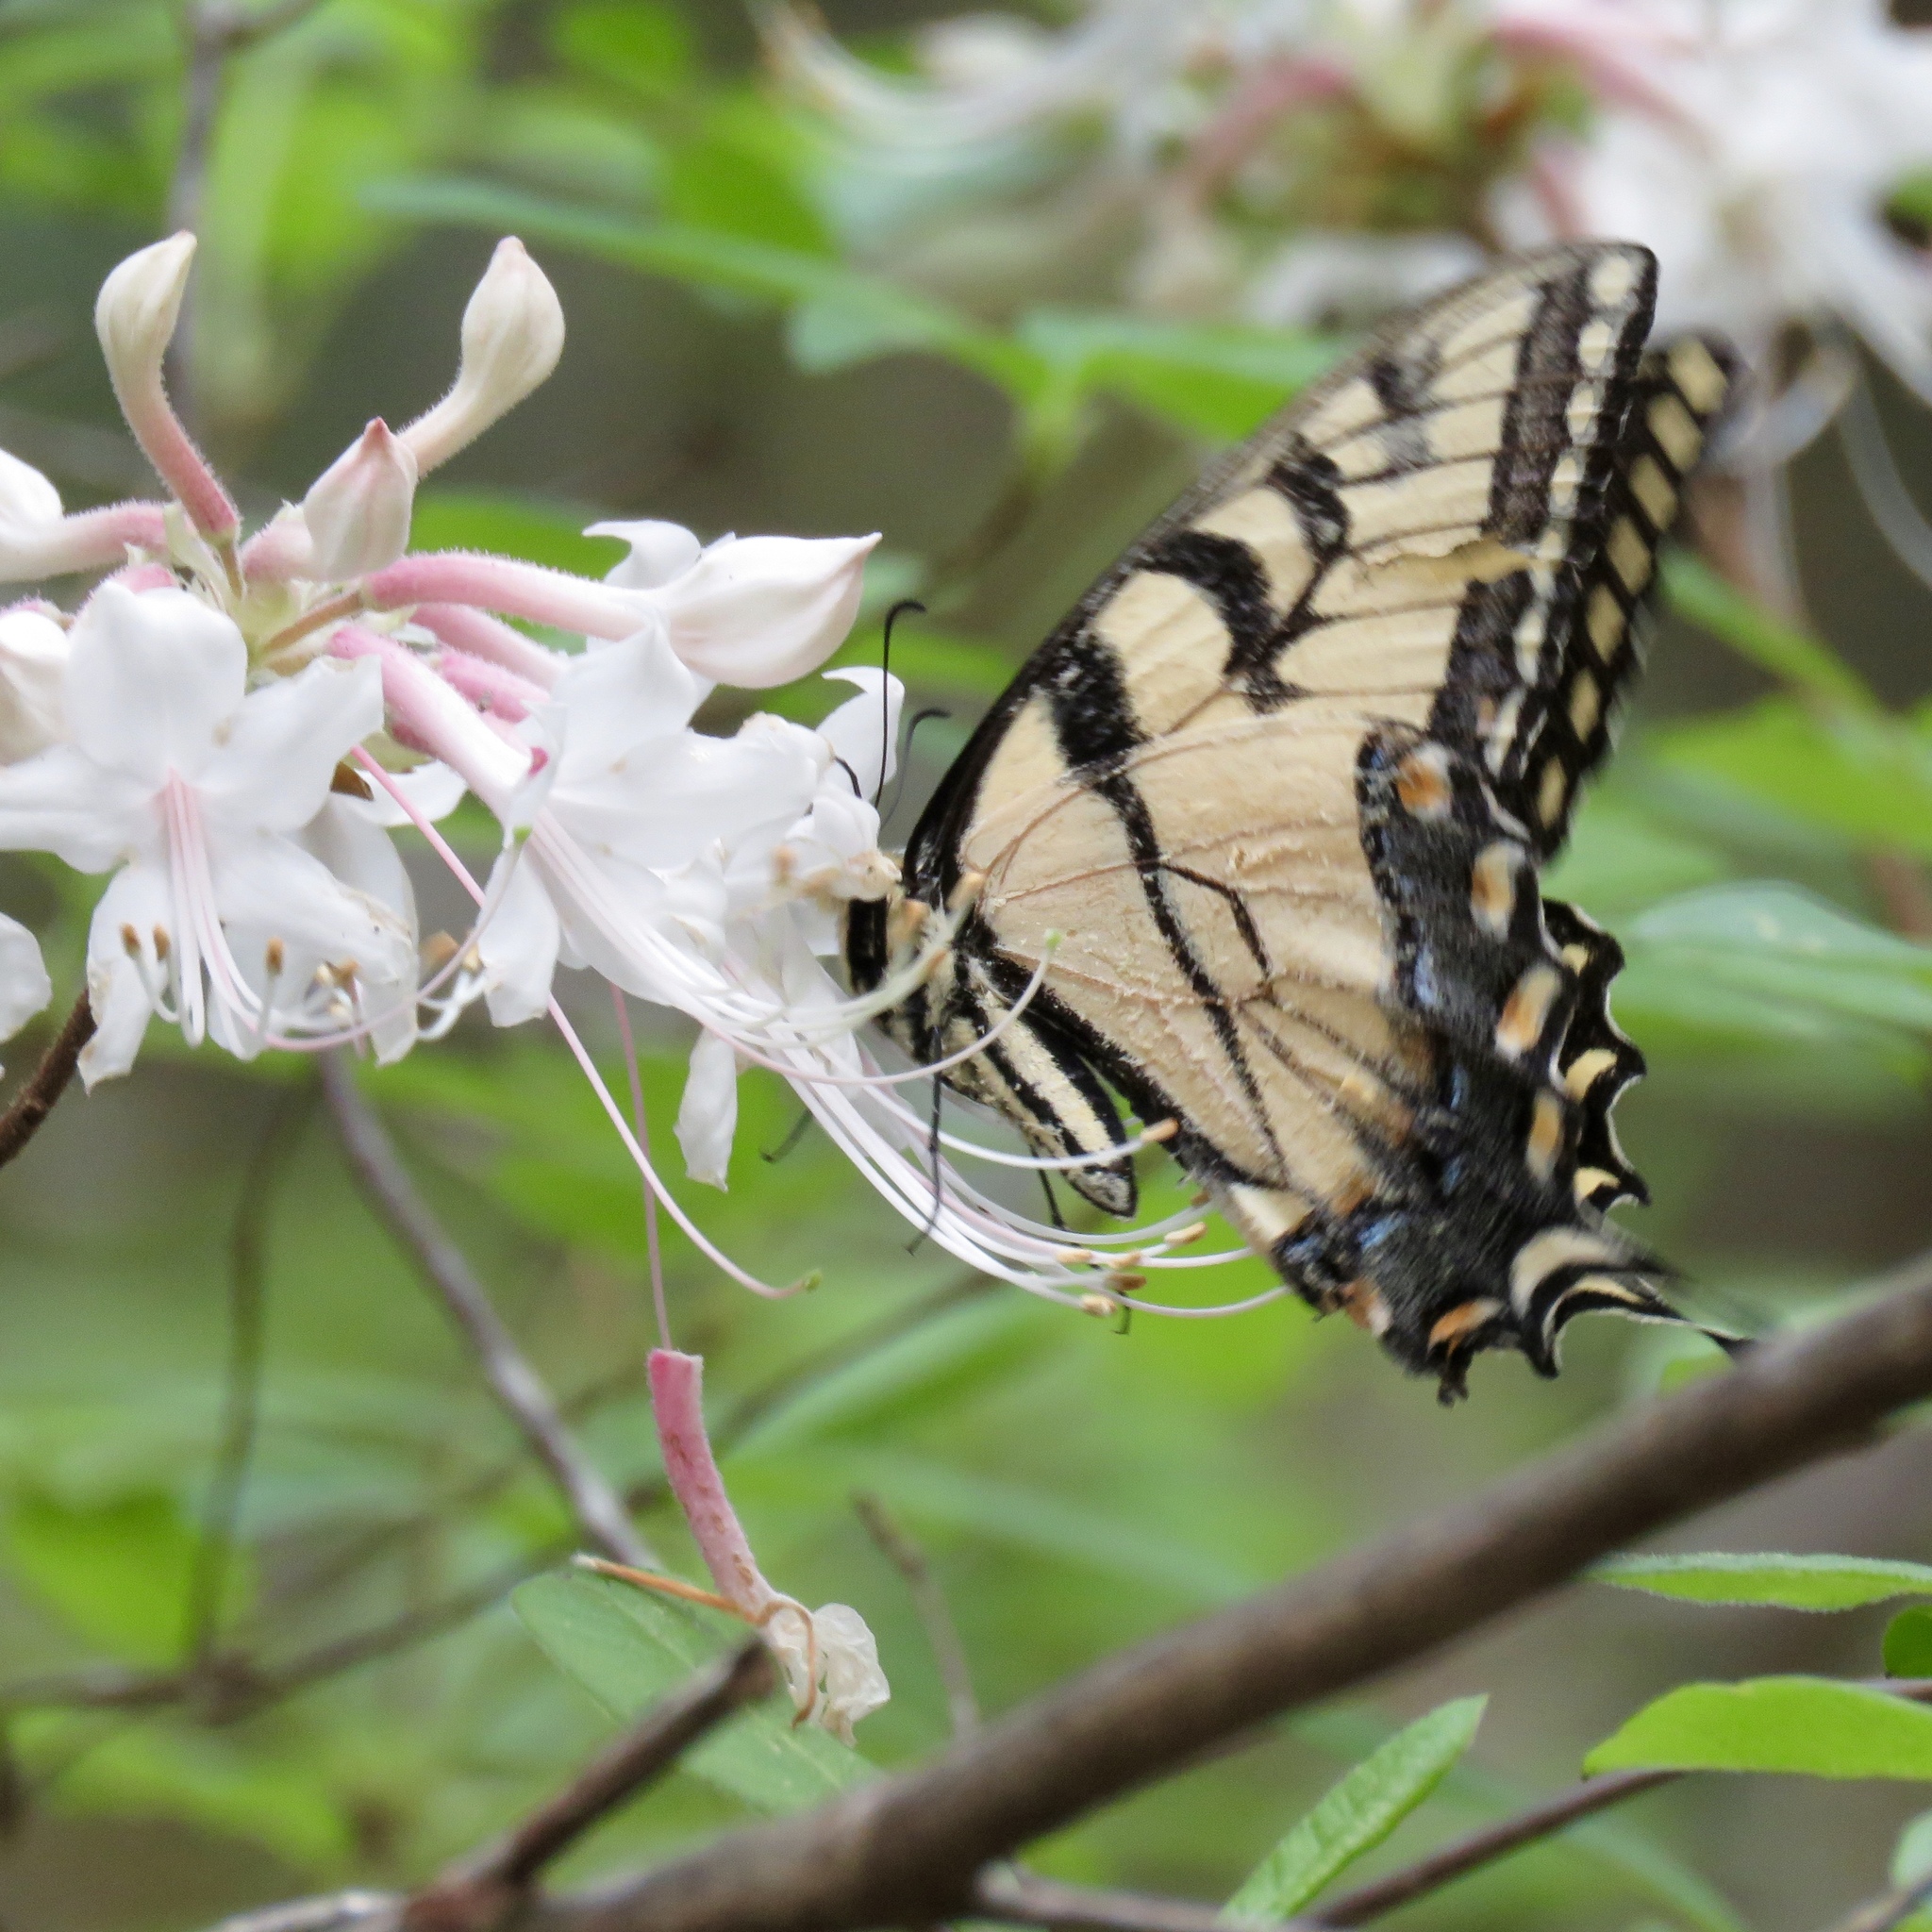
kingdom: Animalia
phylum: Arthropoda
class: Insecta
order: Lepidoptera
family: Papilionidae
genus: Papilio
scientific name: Papilio glaucus
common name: Tiger swallowtail
